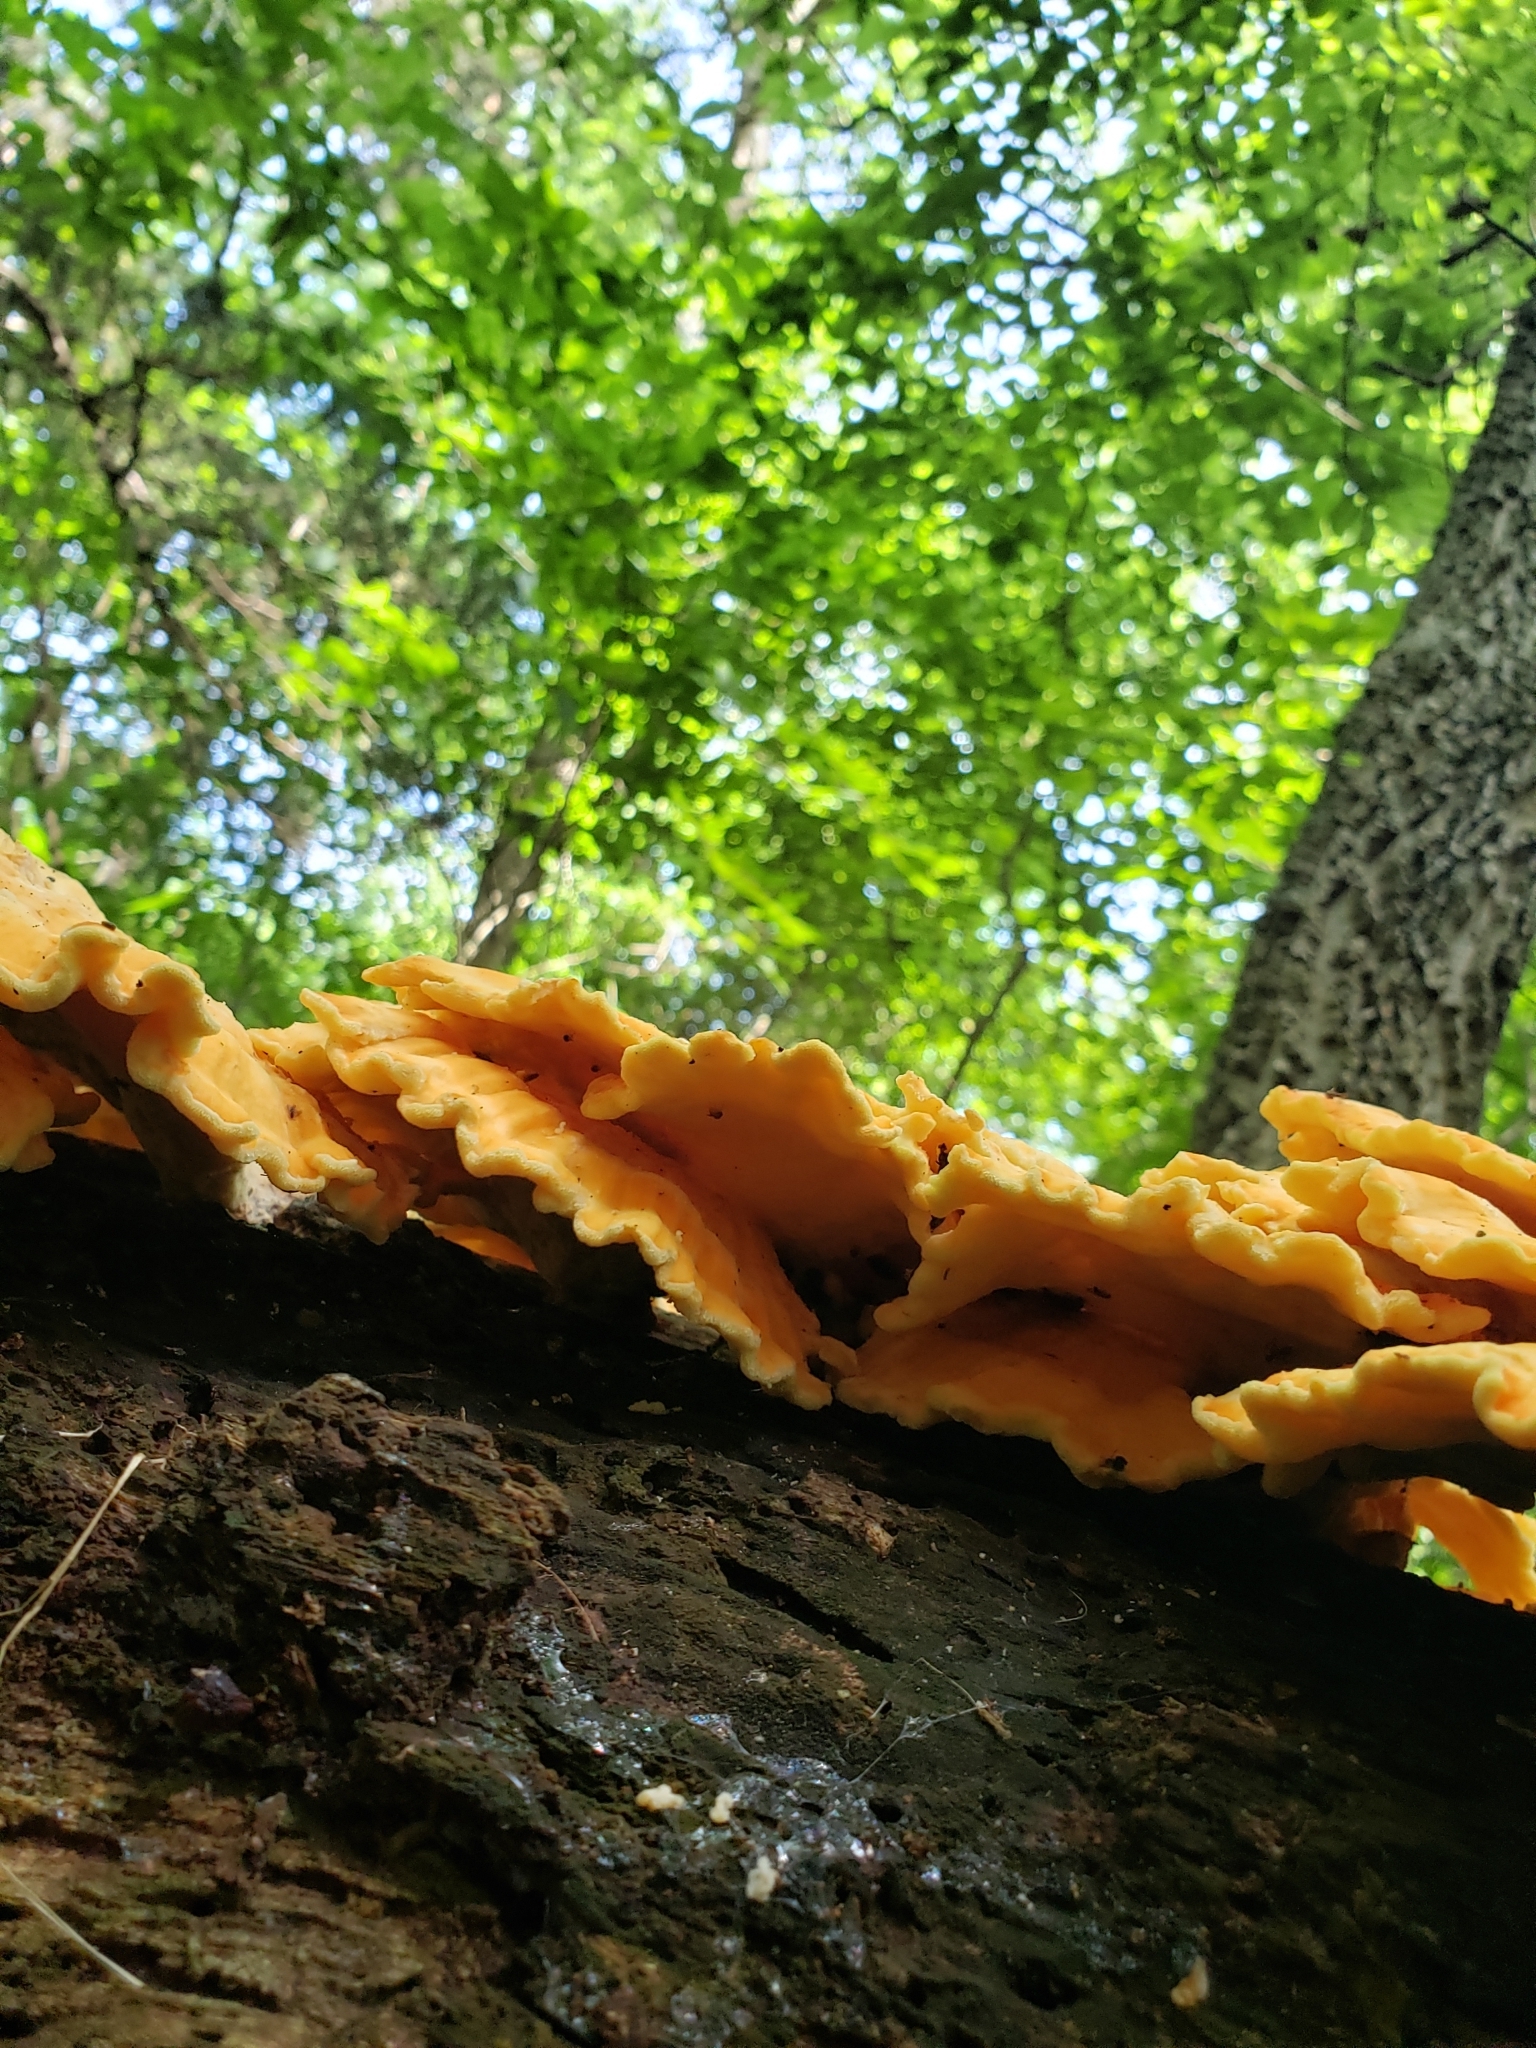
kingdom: Fungi
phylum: Basidiomycota
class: Agaricomycetes
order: Polyporales
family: Laetiporaceae
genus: Laetiporus
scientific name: Laetiporus sulphureus
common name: Chicken of the woods
